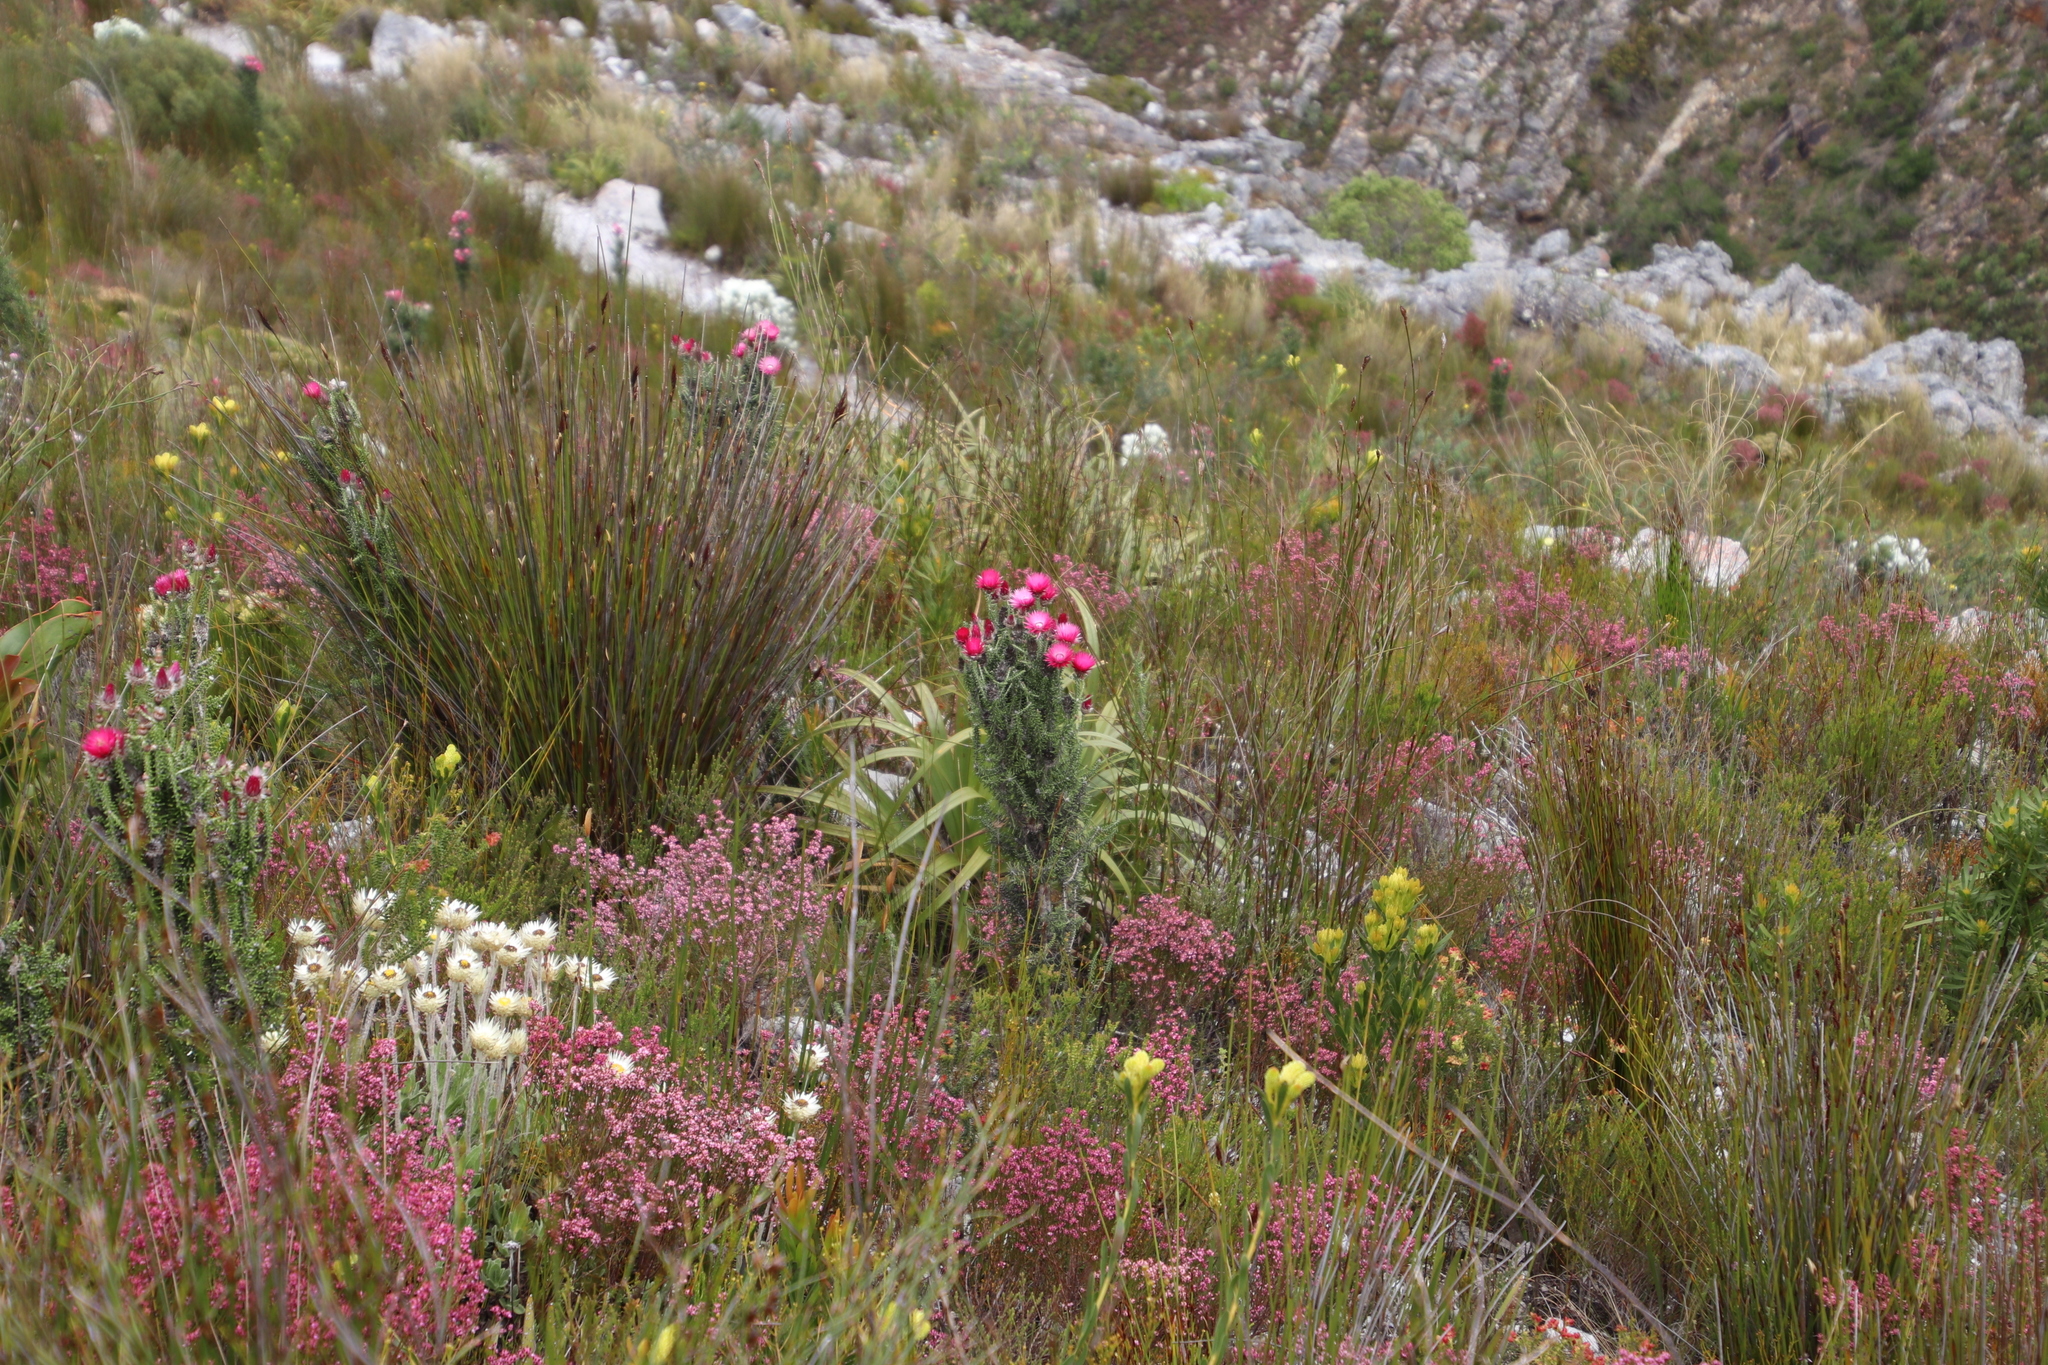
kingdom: Plantae
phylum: Tracheophyta
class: Magnoliopsida
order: Asterales
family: Asteraceae
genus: Phaenocoma
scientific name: Phaenocoma prolifera
